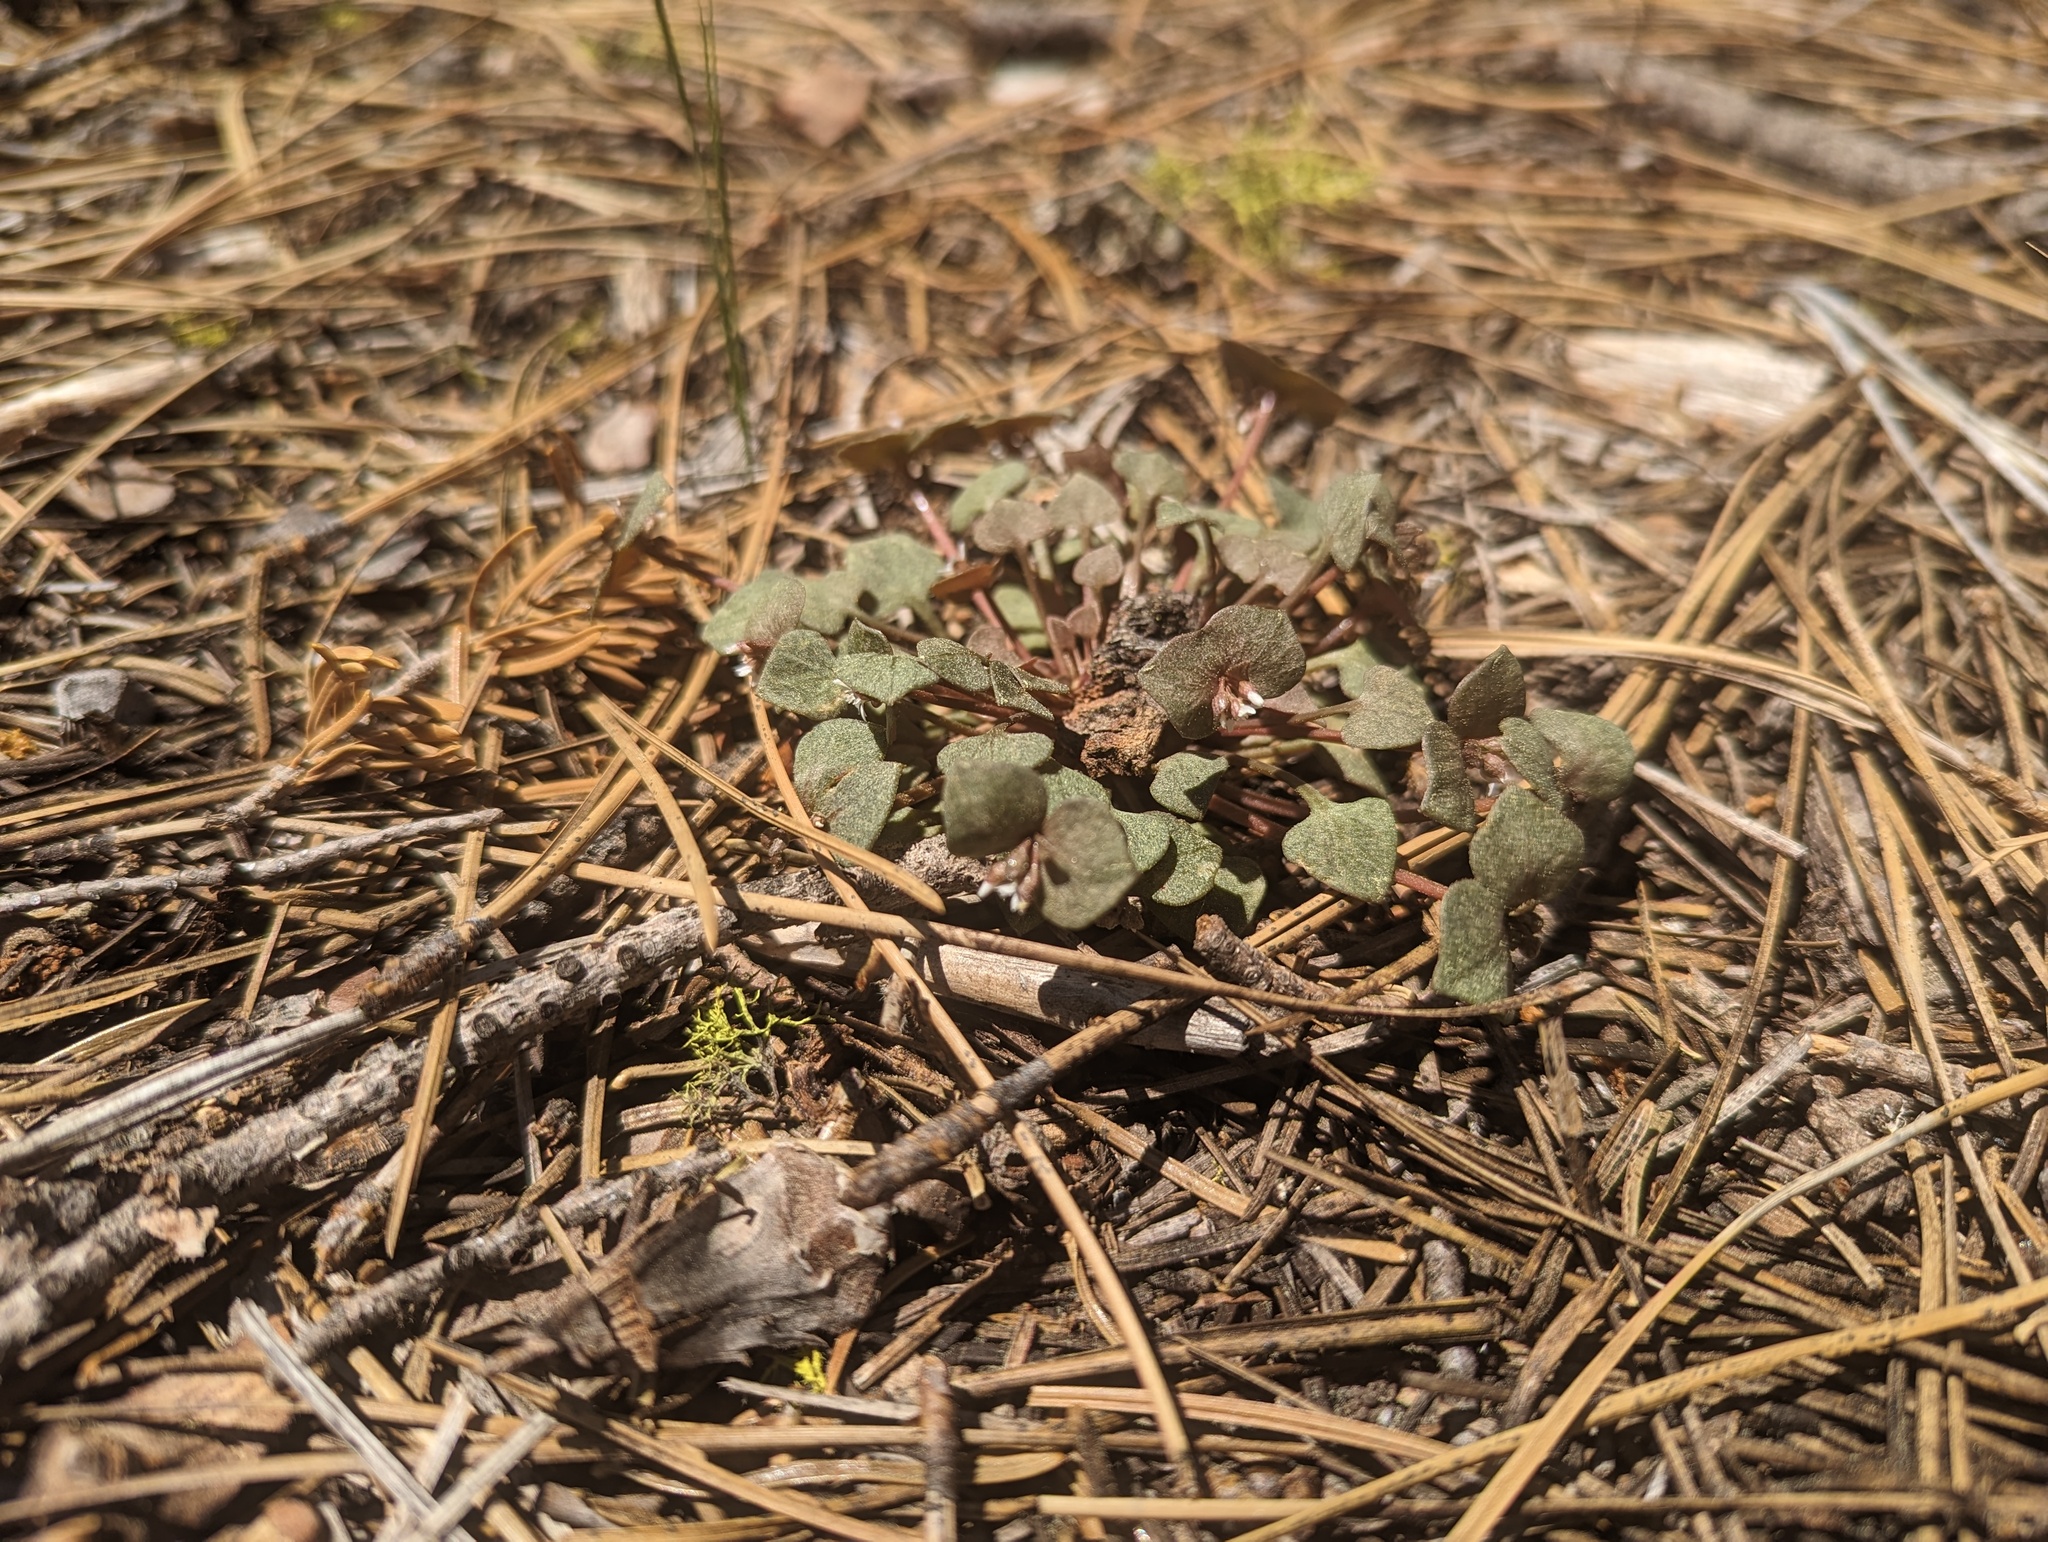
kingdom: Plantae
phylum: Tracheophyta
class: Magnoliopsida
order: Caryophyllales
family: Montiaceae
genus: Claytonia
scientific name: Claytonia rubra
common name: Erubescent miner's-lettuce
